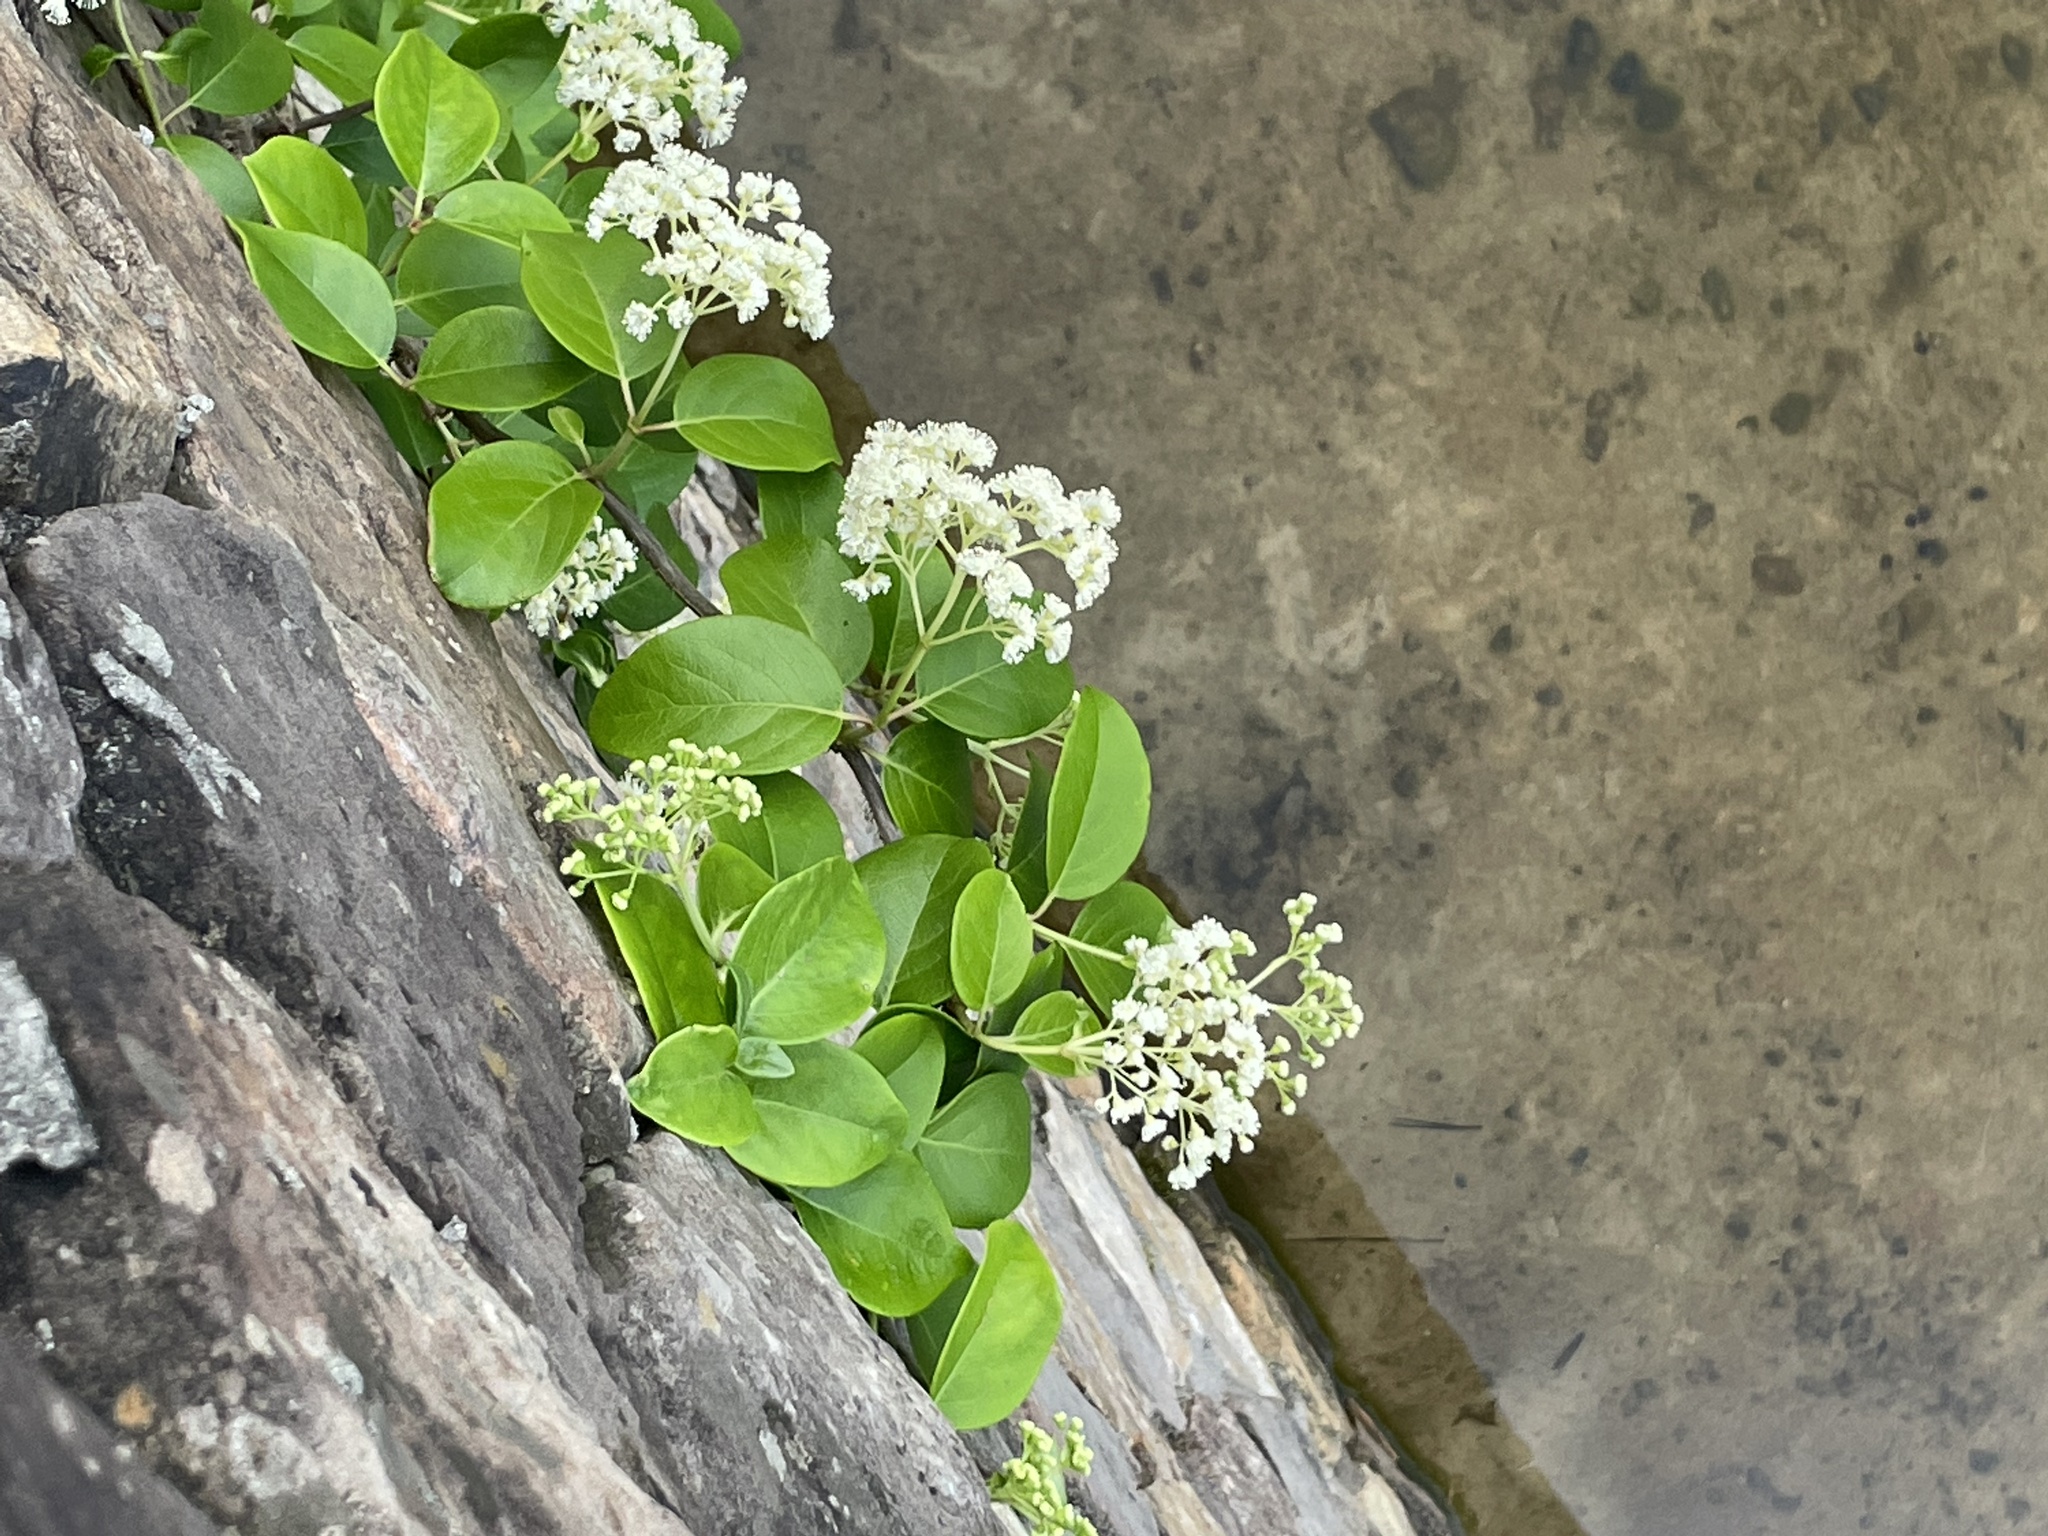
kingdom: Plantae
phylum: Tracheophyta
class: Magnoliopsida
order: Cornales
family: Hydrangeaceae
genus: Hydrangea
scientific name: Hydrangea barbara
